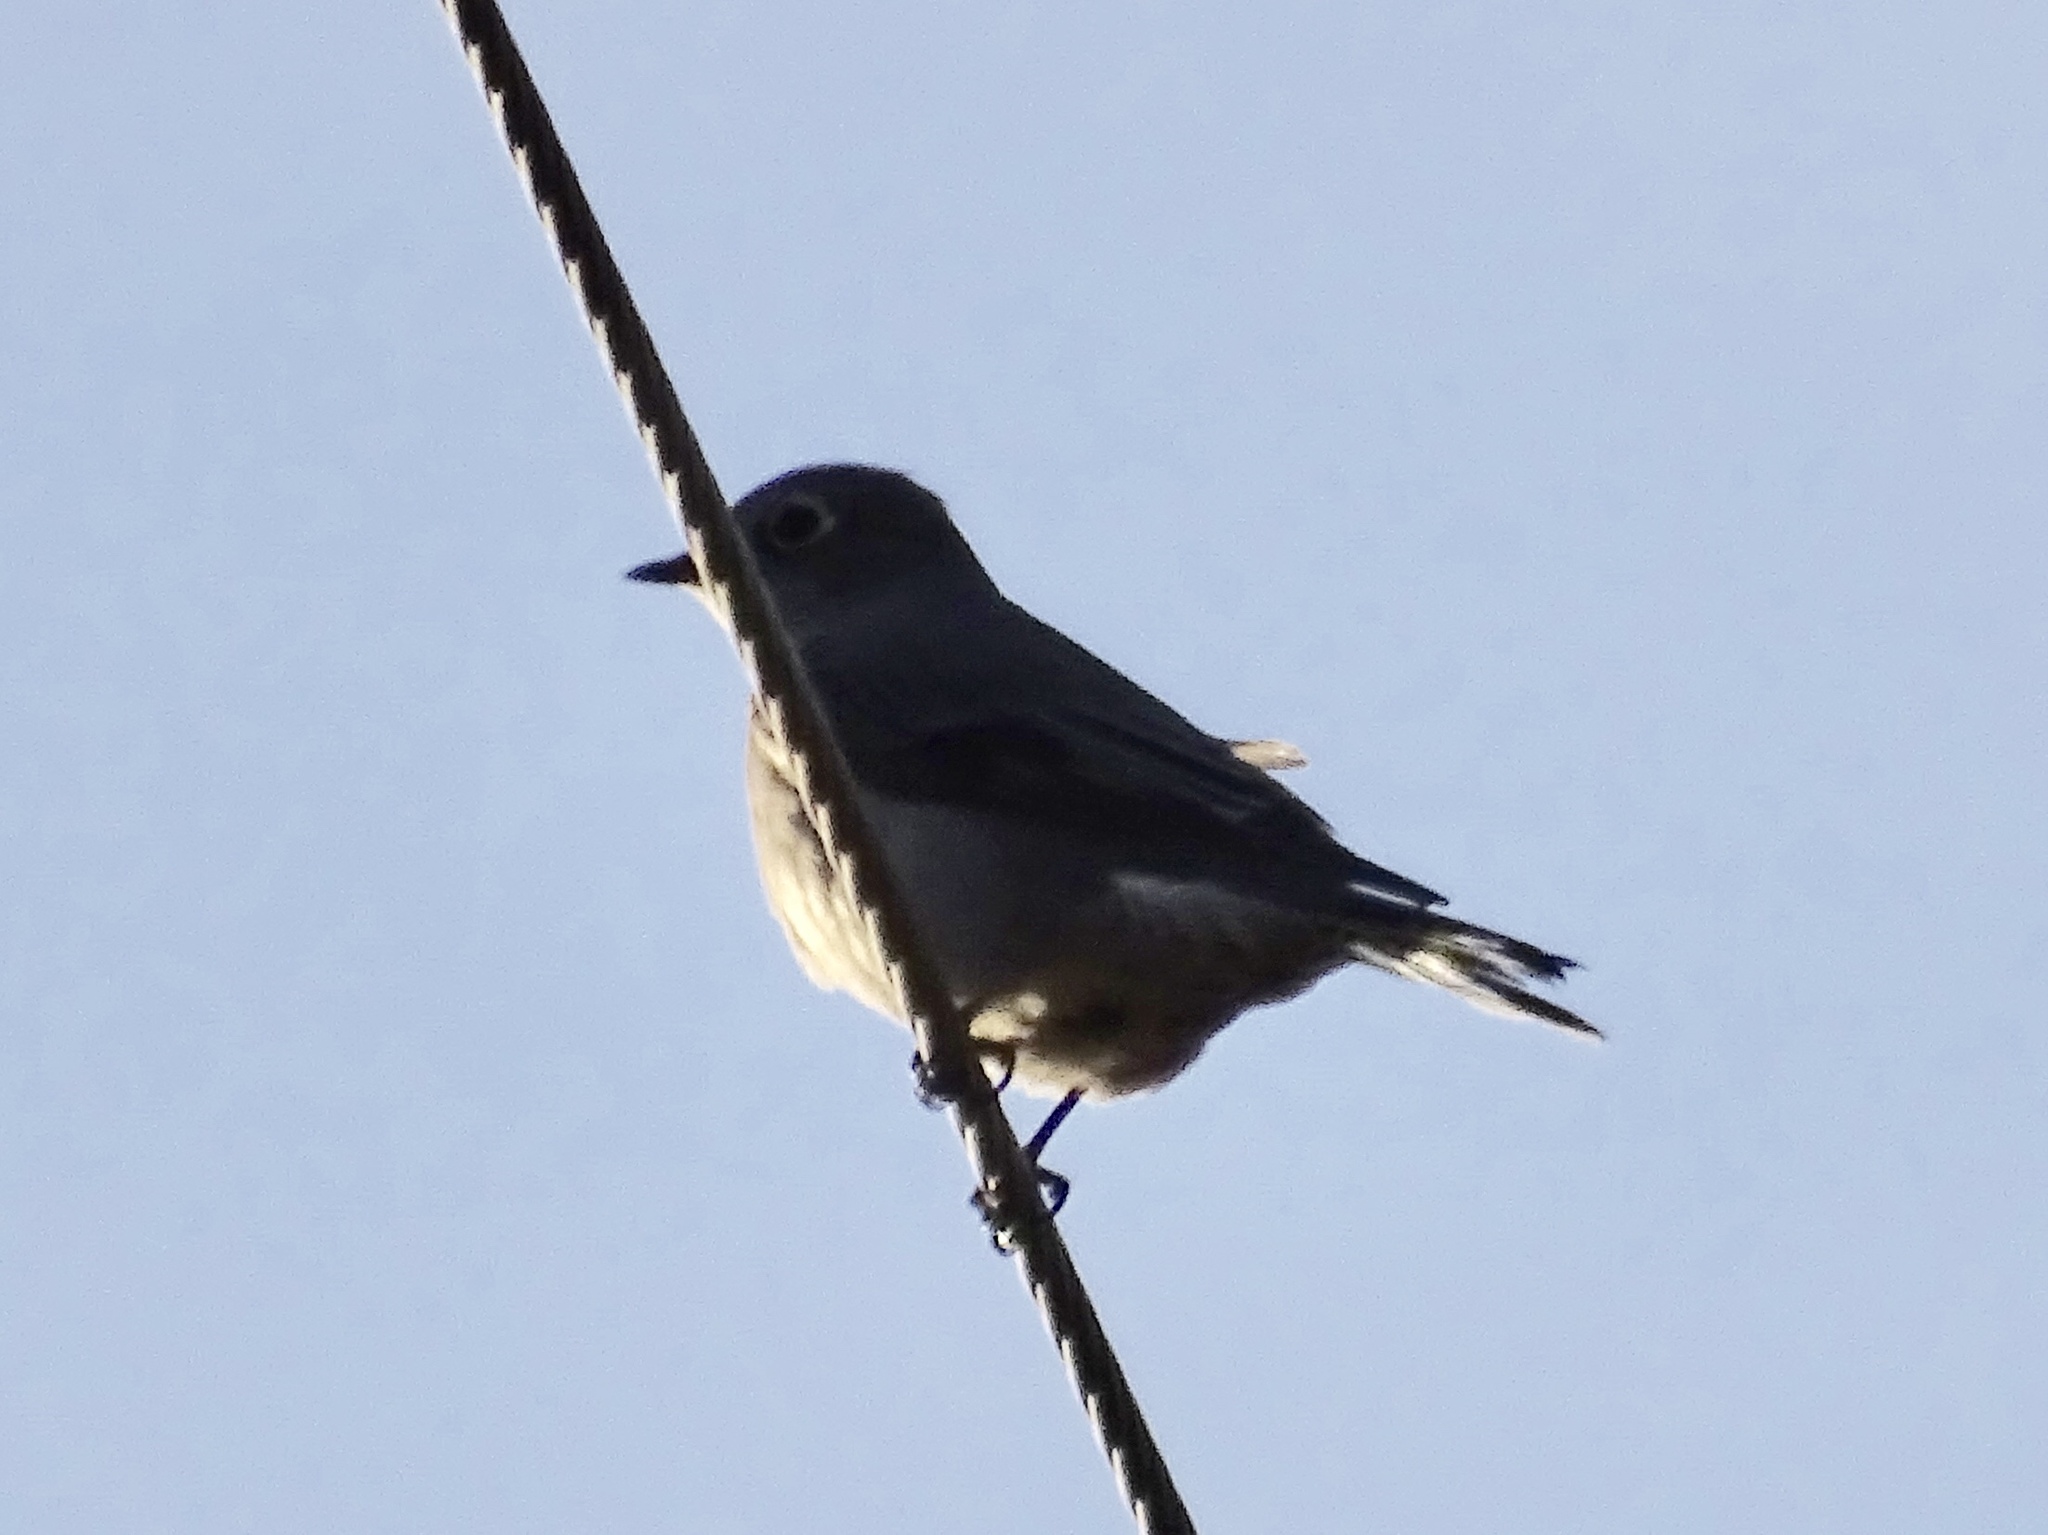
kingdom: Animalia
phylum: Chordata
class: Aves
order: Passeriformes
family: Turdidae
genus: Myadestes
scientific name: Myadestes townsendi
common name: Townsend's solitaire
